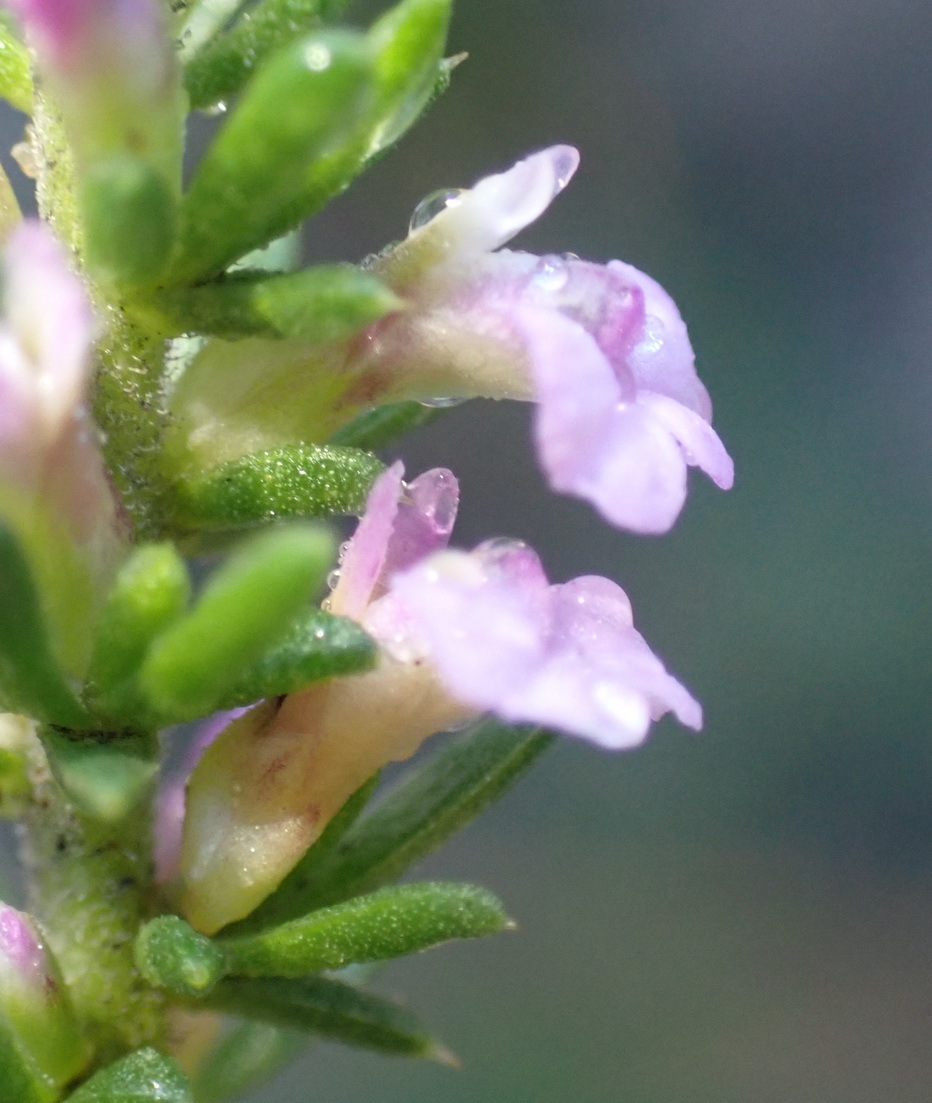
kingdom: Plantae
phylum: Tracheophyta
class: Magnoliopsida
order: Fabales
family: Polygalaceae
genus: Muraltia
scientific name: Muraltia satureioides
